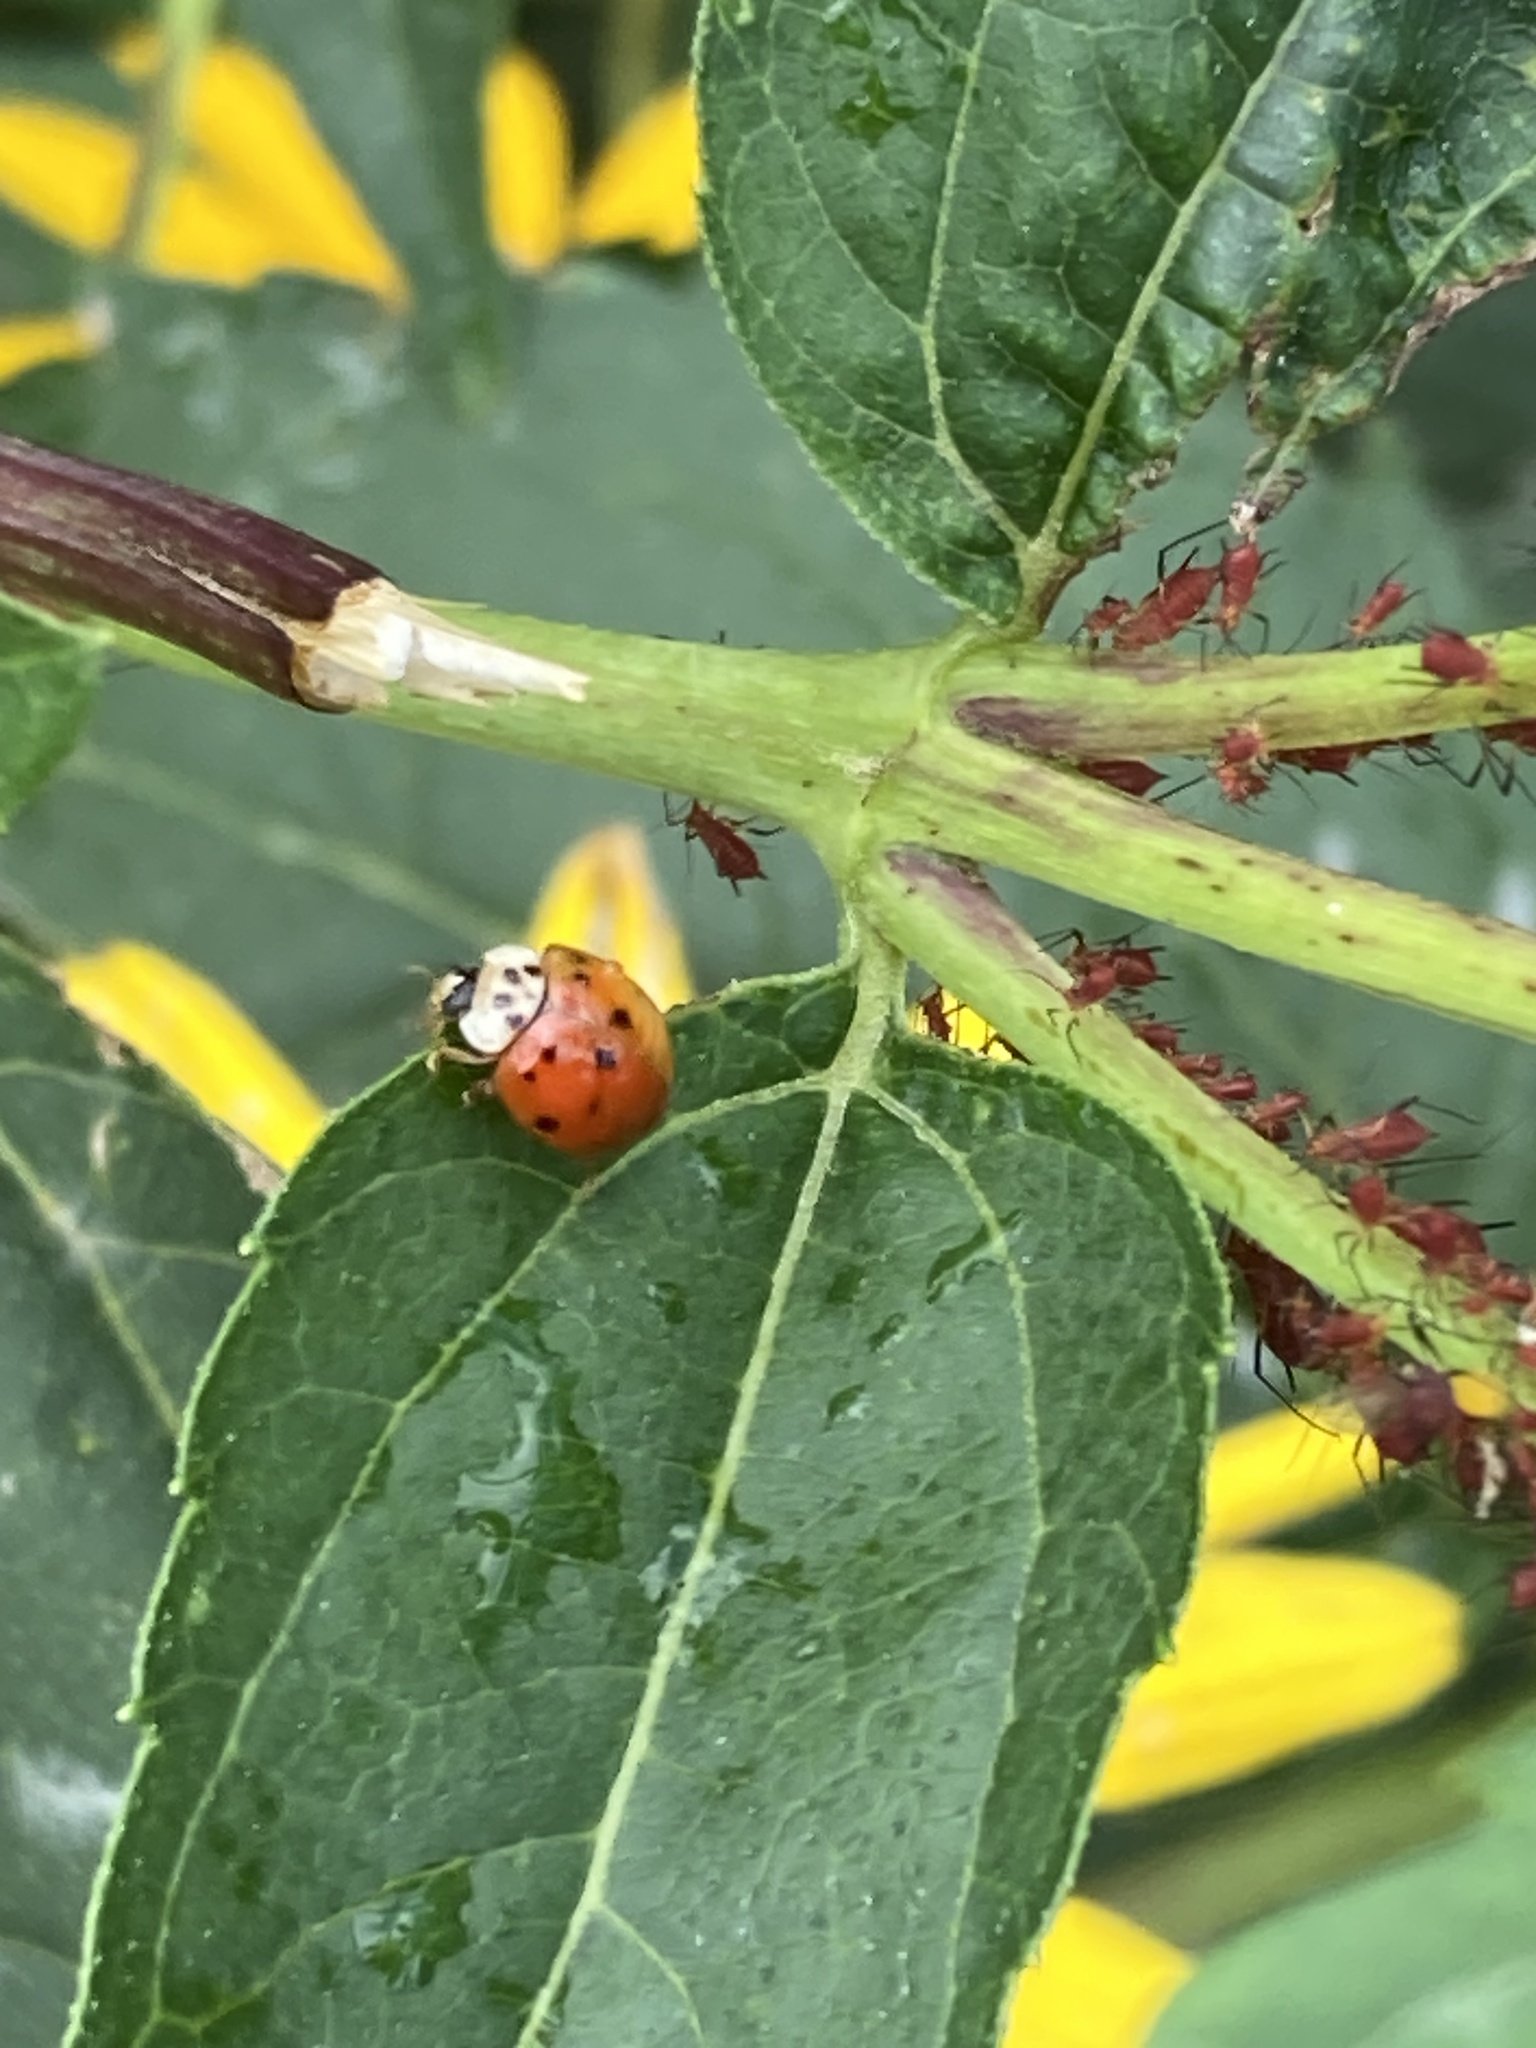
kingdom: Animalia
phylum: Arthropoda
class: Insecta
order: Coleoptera
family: Coccinellidae
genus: Harmonia
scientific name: Harmonia axyridis
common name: Harlequin ladybird
